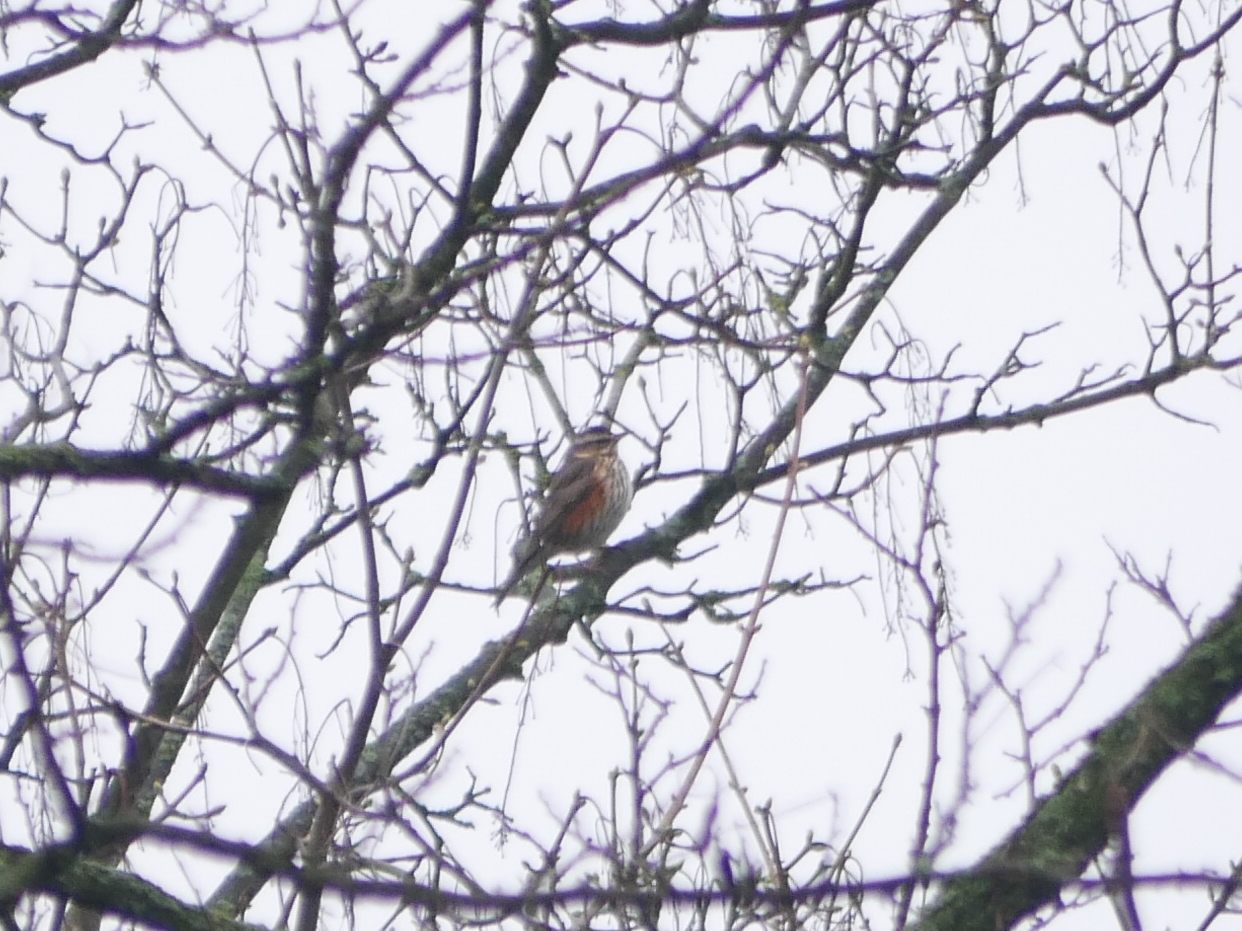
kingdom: Animalia
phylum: Chordata
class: Aves
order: Passeriformes
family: Turdidae
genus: Turdus
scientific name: Turdus iliacus
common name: Redwing
